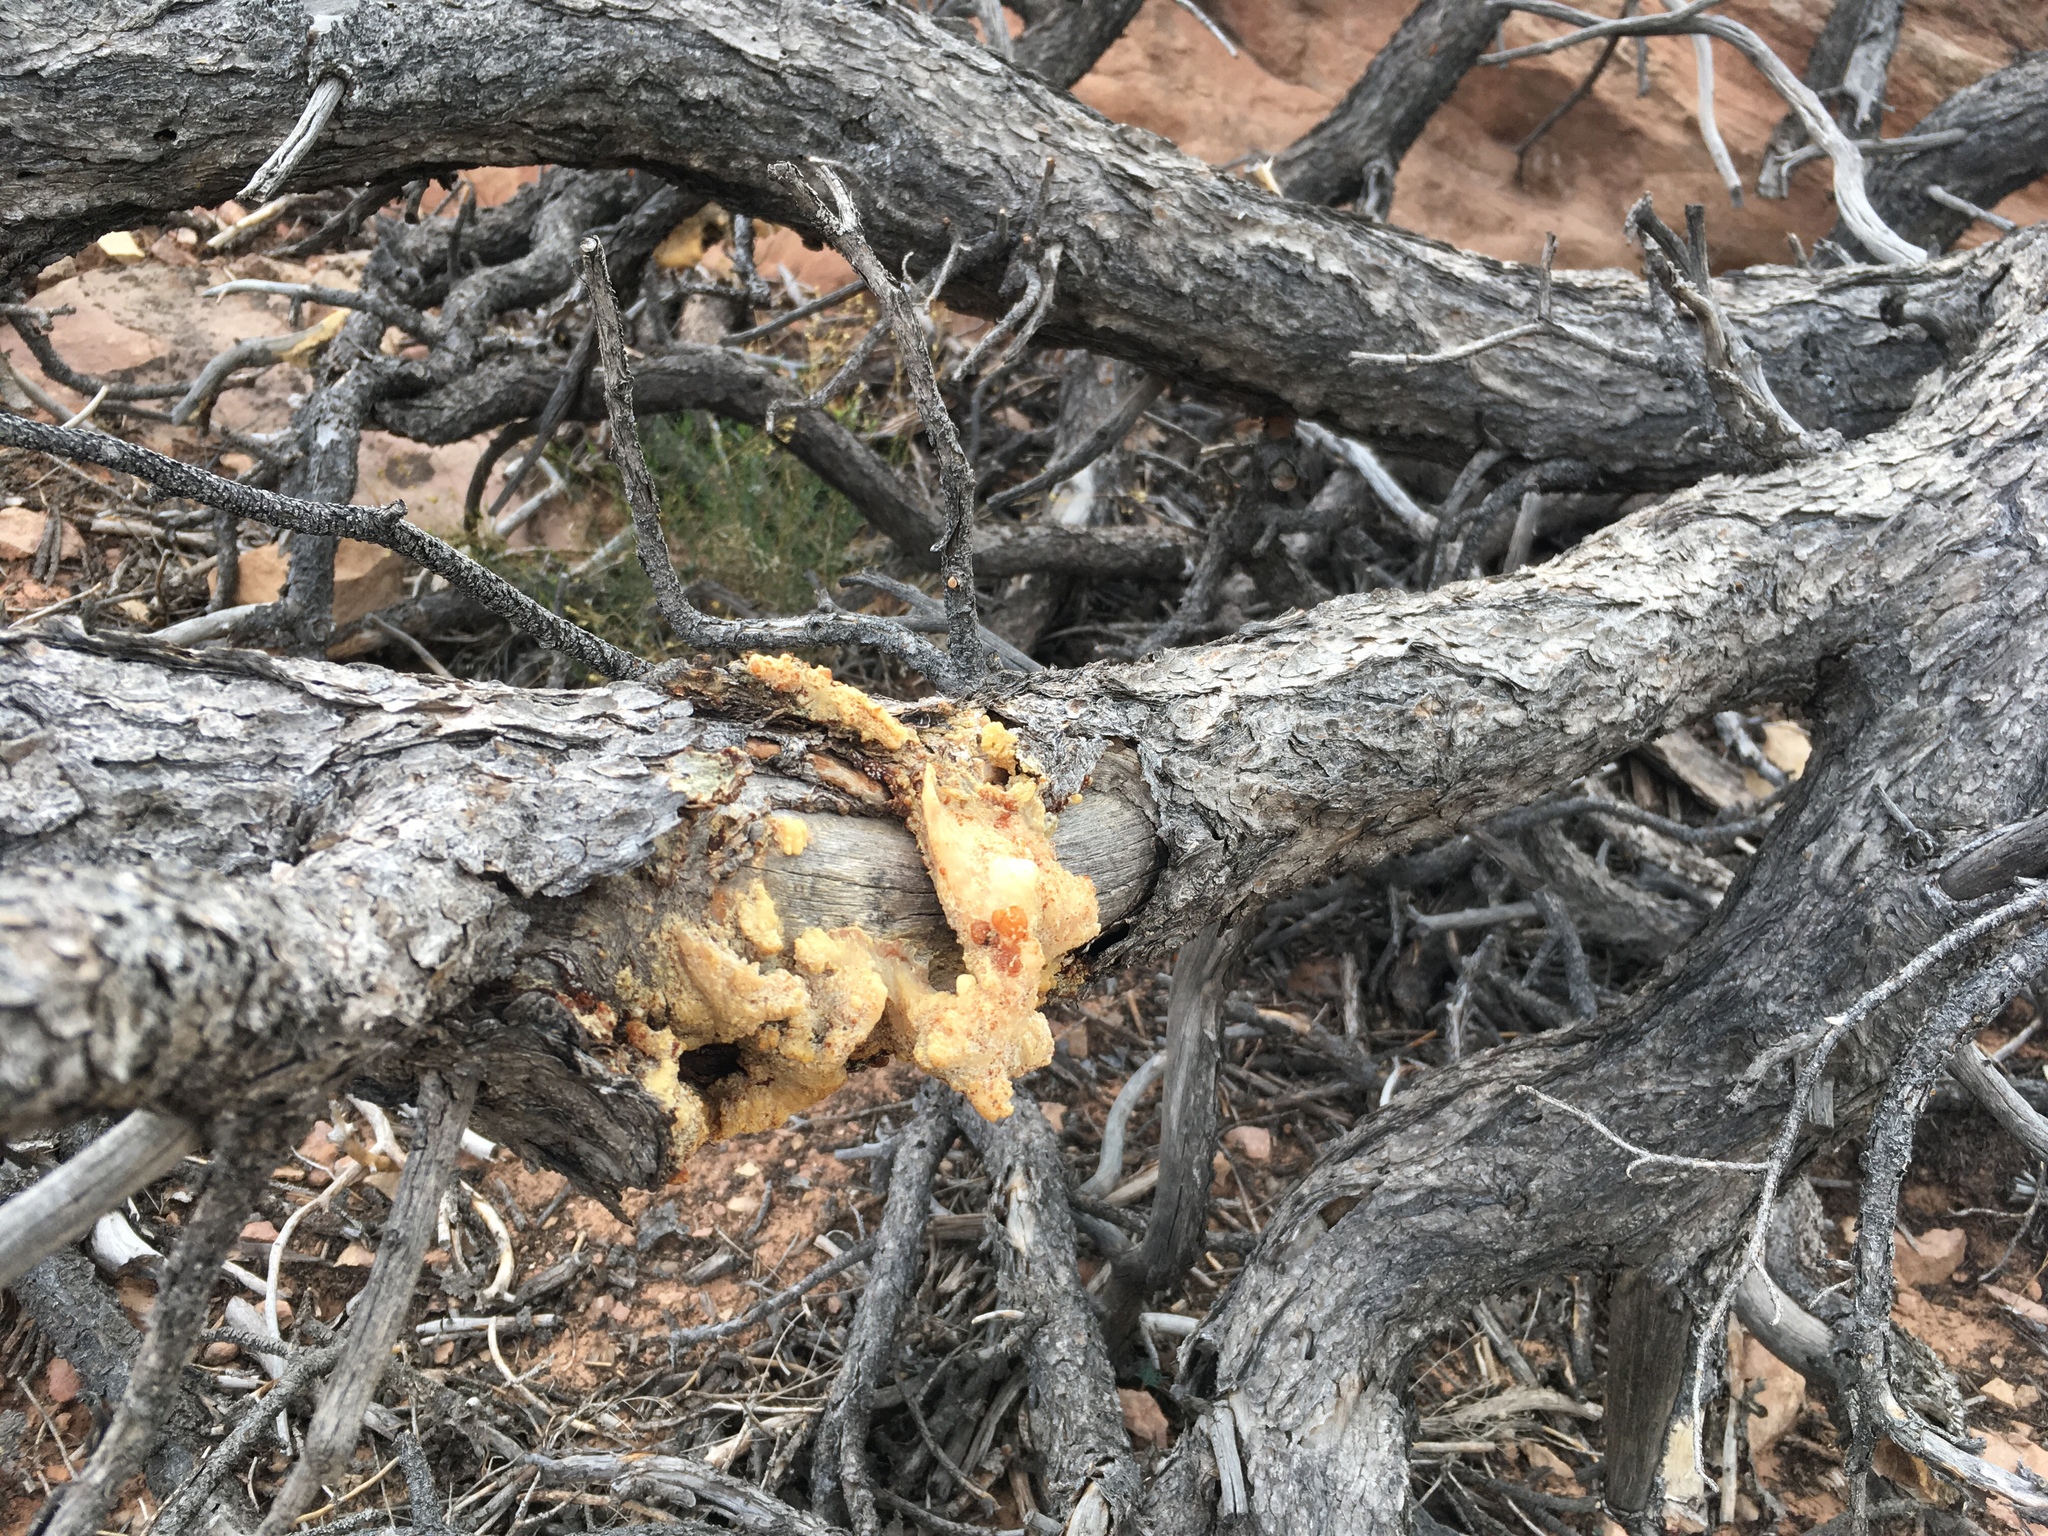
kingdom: Plantae
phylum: Tracheophyta
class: Pinopsida
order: Pinales
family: Pinaceae
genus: Pinus
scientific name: Pinus edulis
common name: Colorado pinyon
